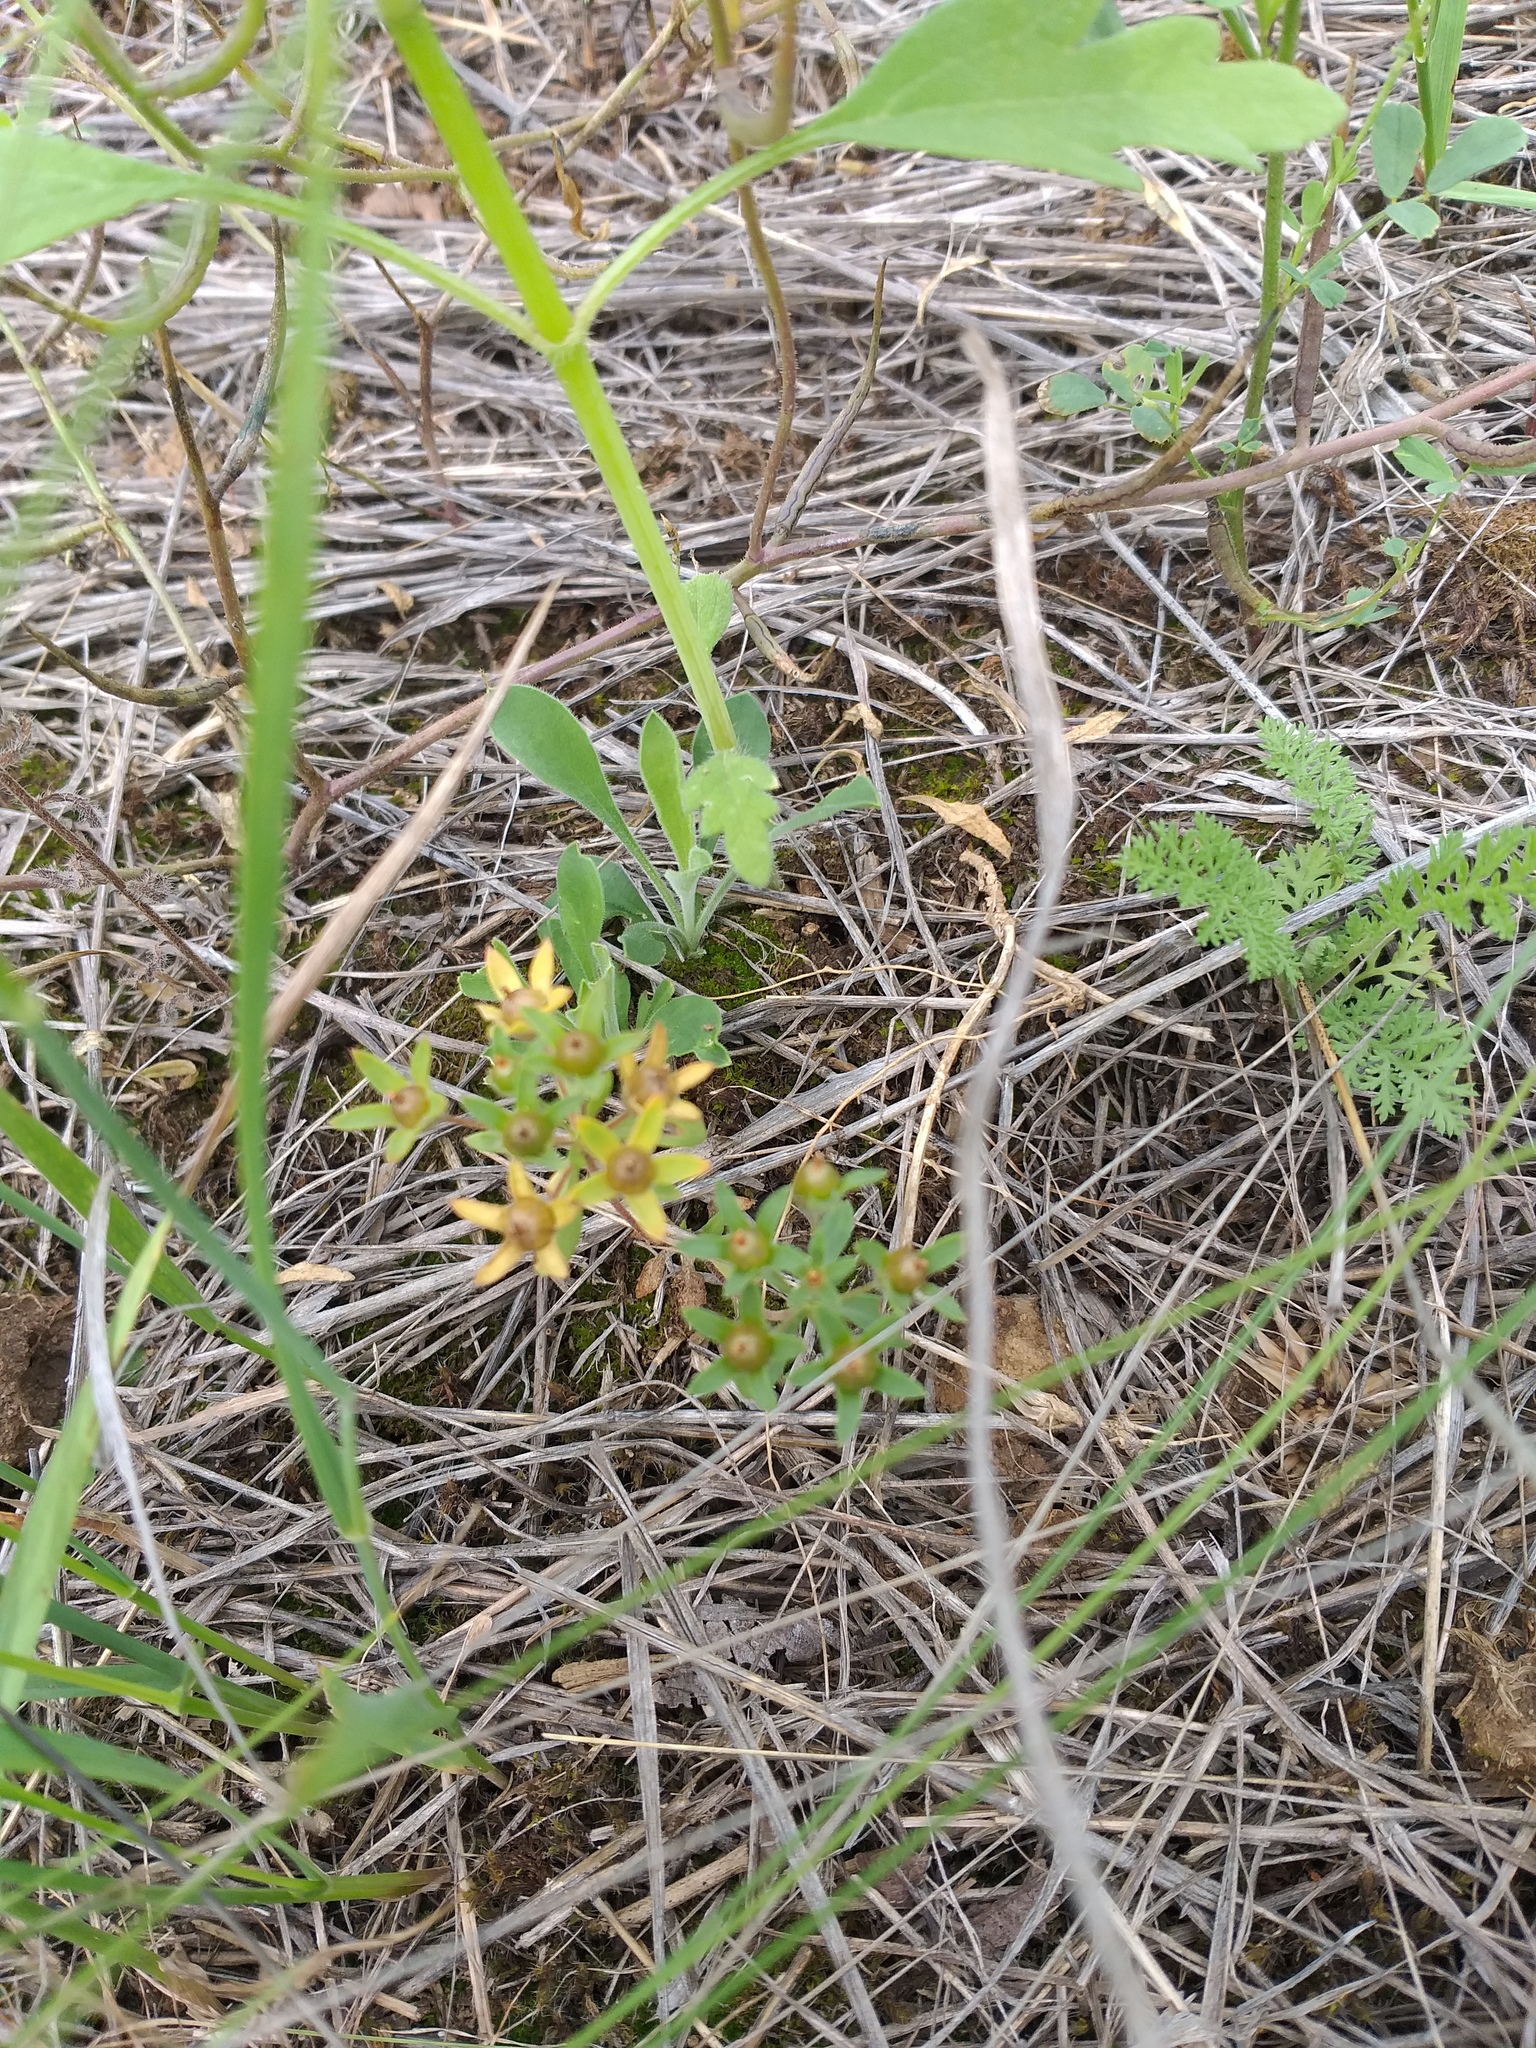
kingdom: Plantae
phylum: Tracheophyta
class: Magnoliopsida
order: Ericales
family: Primulaceae
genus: Androsace
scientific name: Androsace maxima
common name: Annual androsace
